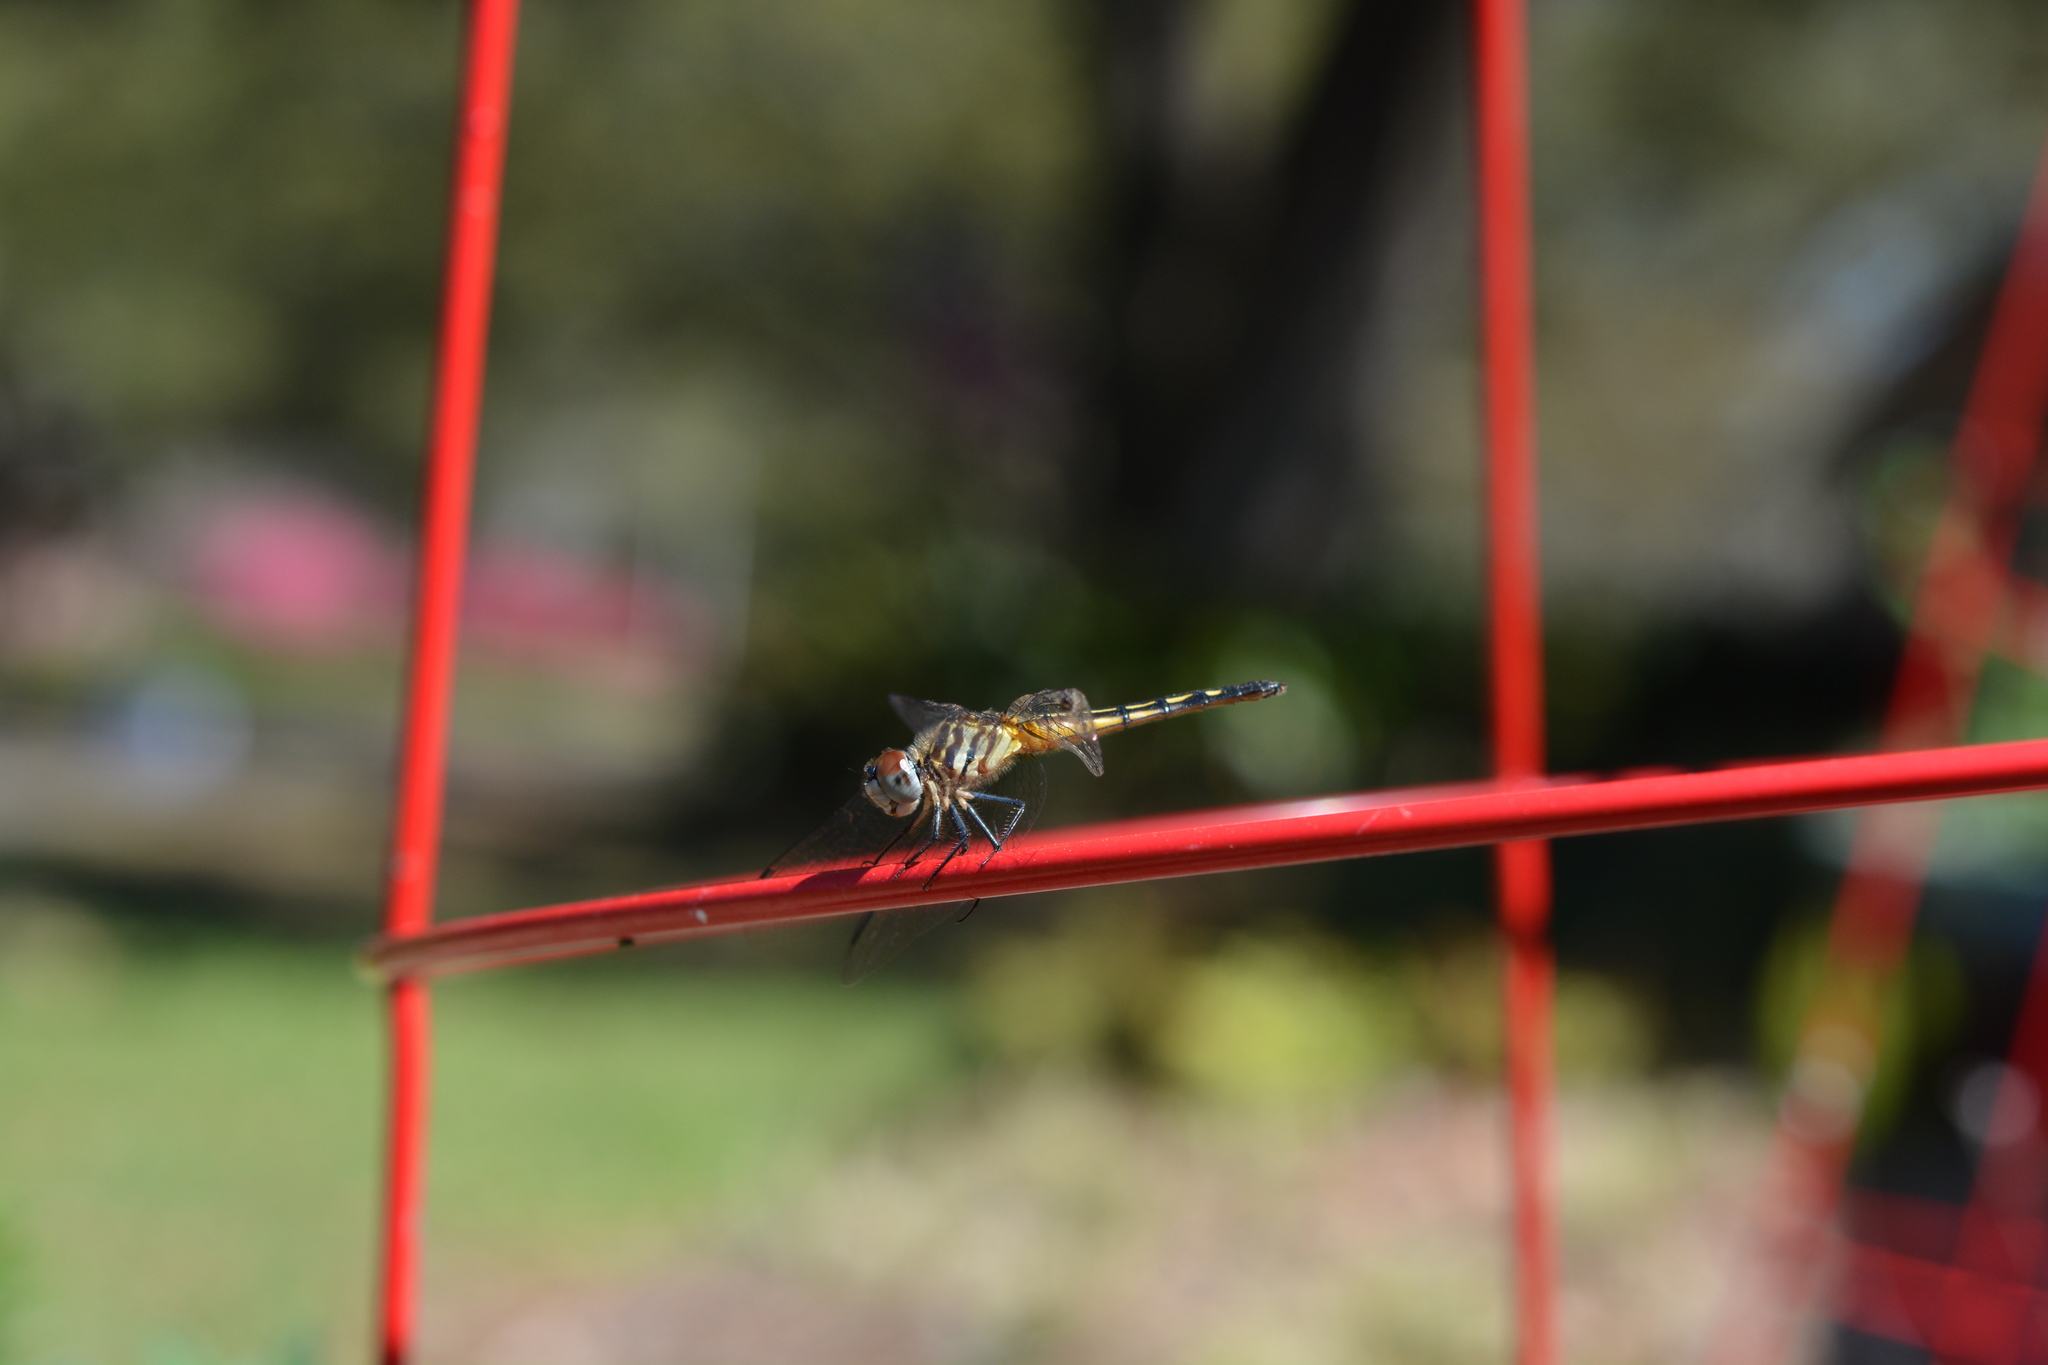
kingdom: Animalia
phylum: Arthropoda
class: Insecta
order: Odonata
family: Libellulidae
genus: Pachydiplax
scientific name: Pachydiplax longipennis
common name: Blue dasher
